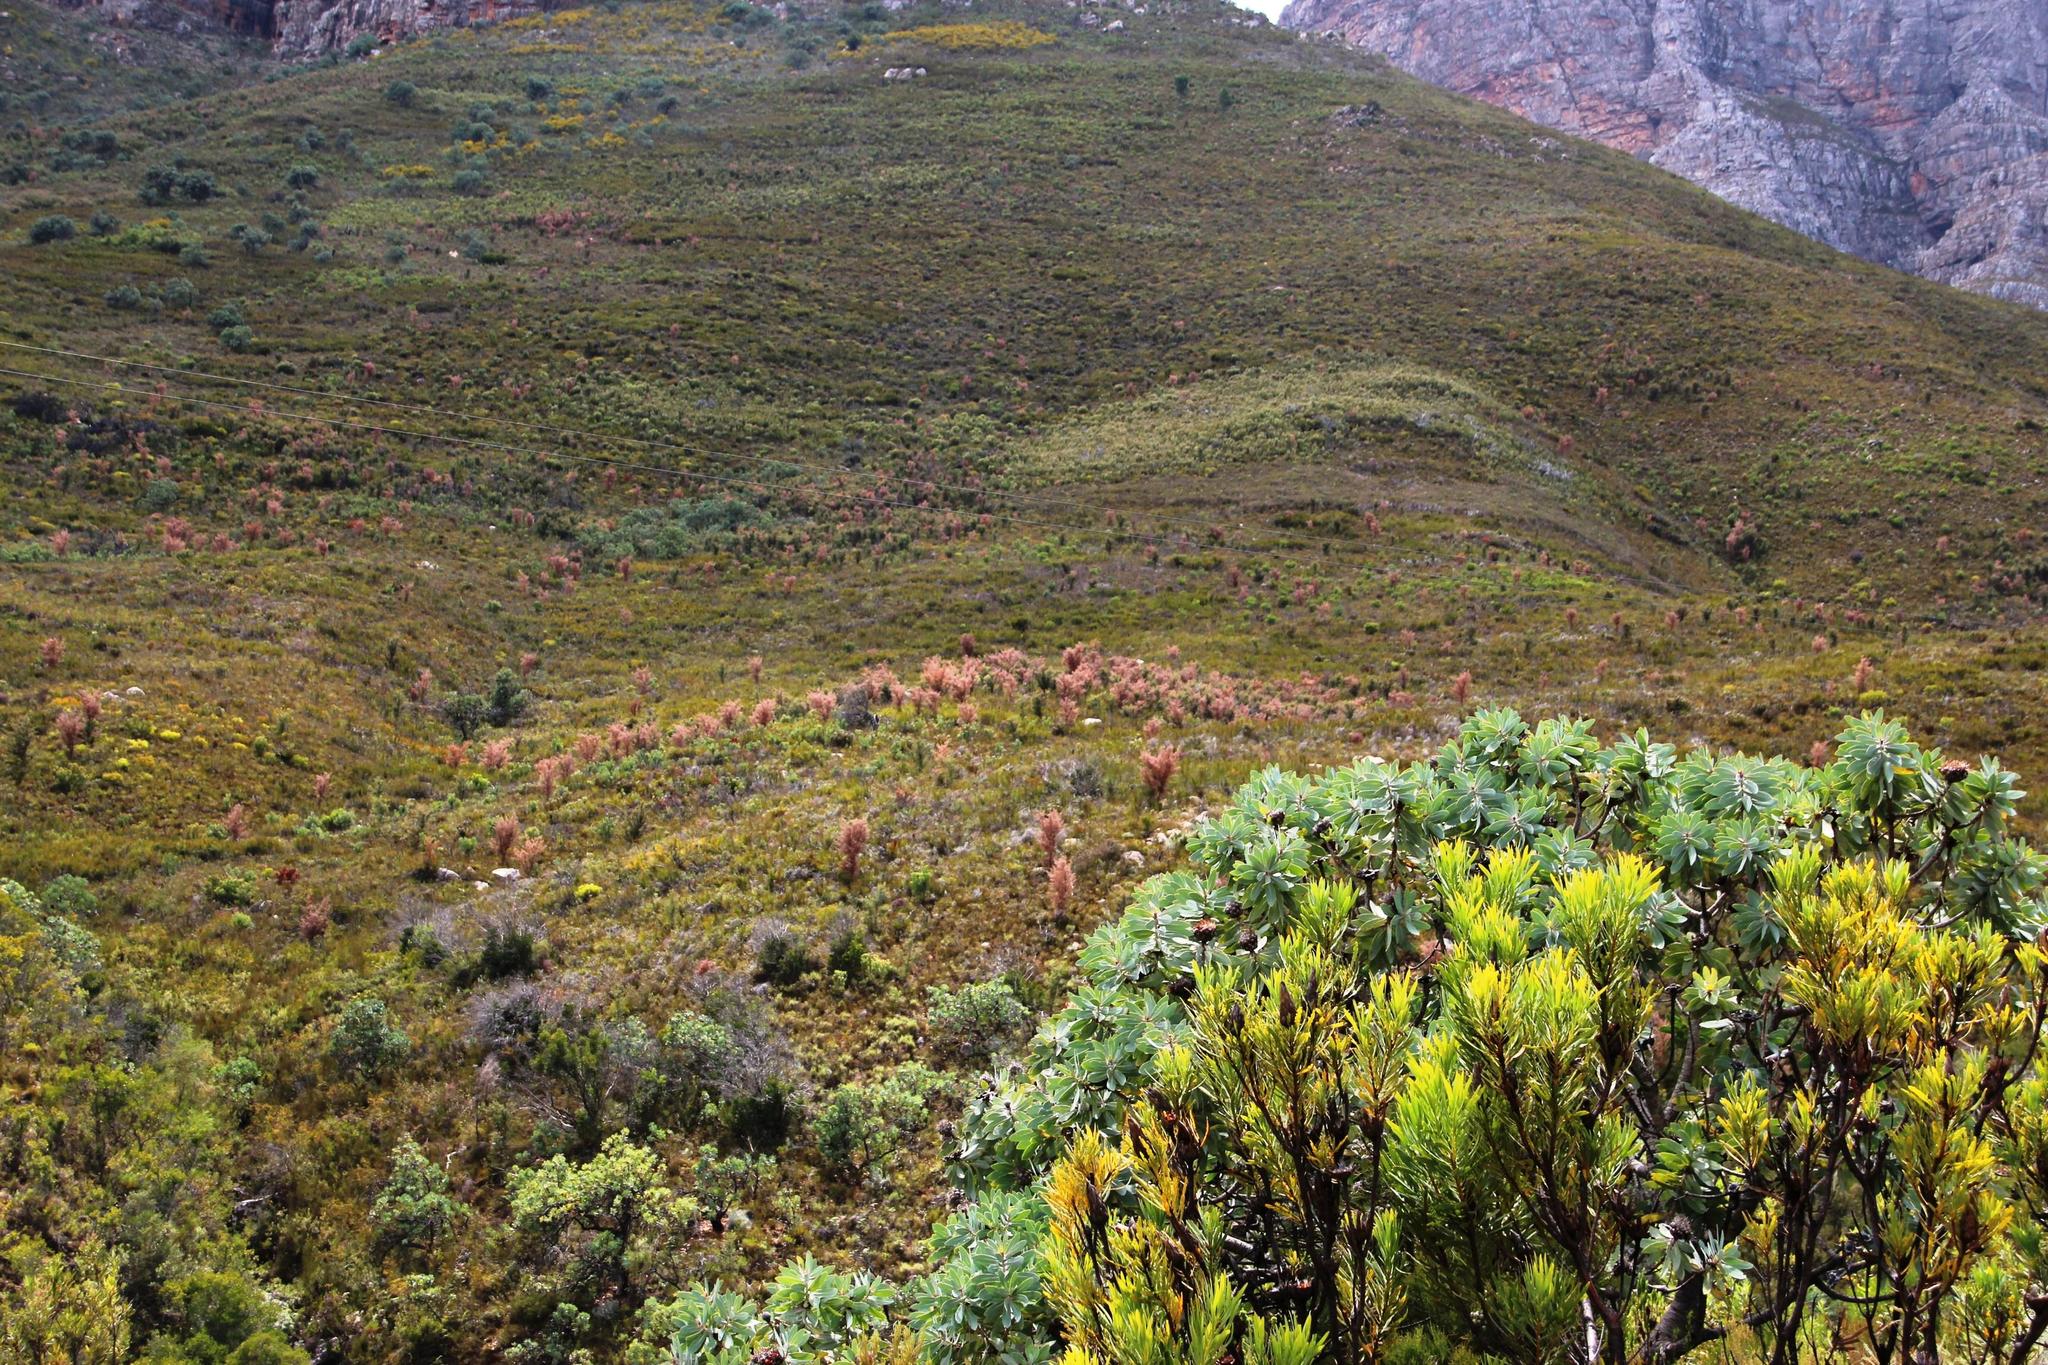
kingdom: Plantae
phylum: Tracheophyta
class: Magnoliopsida
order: Proteales
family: Proteaceae
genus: Hakea
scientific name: Hakea sericea
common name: Needle bush
